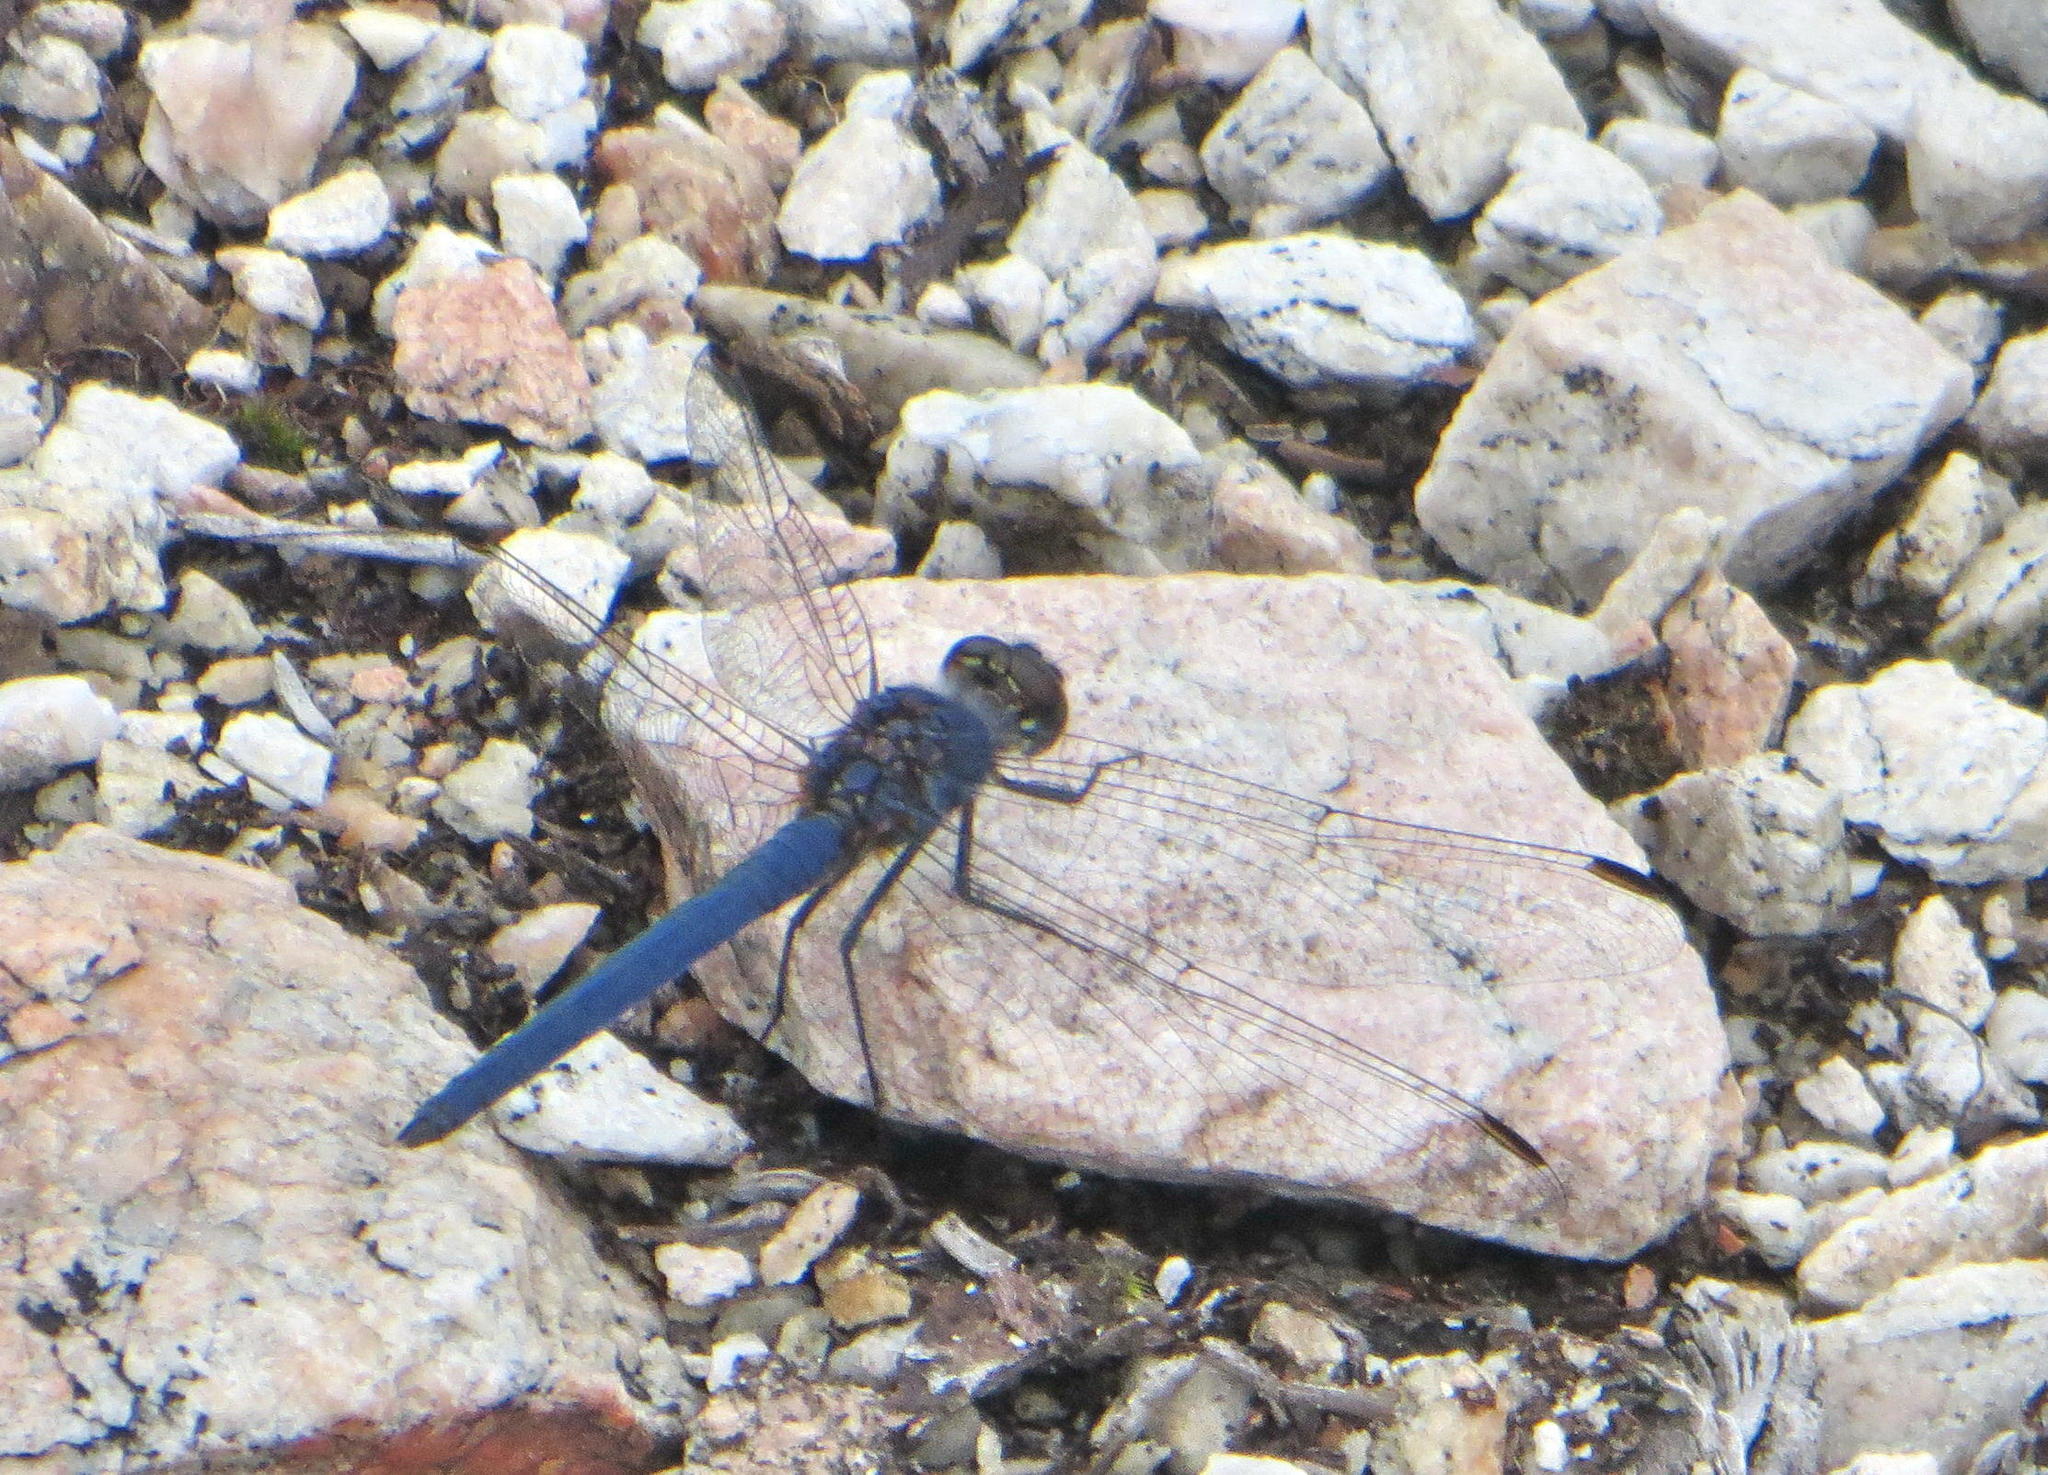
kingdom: Animalia
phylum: Arthropoda
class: Insecta
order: Odonata
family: Libellulidae
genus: Trithemis
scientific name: Trithemis furva
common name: Dark dropwing
